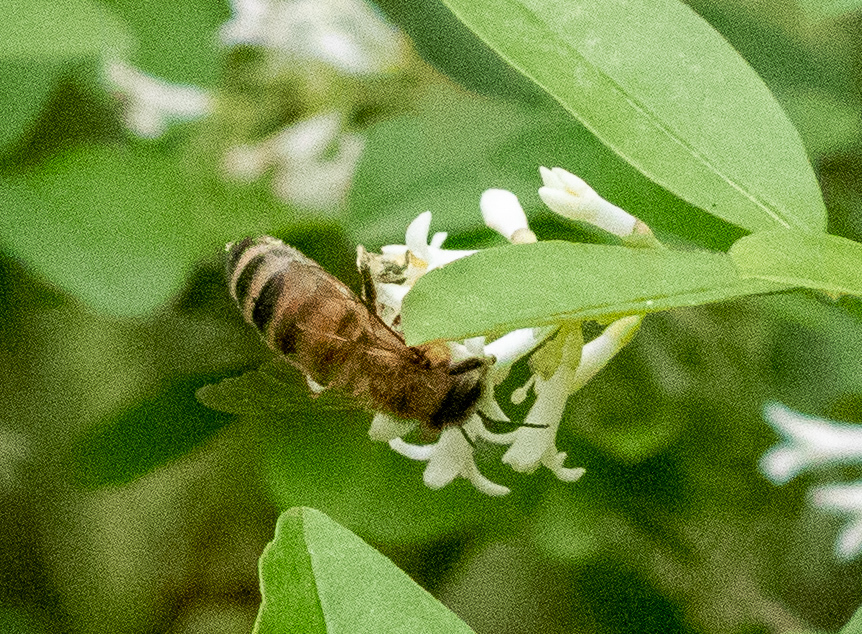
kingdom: Animalia
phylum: Arthropoda
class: Insecta
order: Hymenoptera
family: Apidae
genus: Apis
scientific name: Apis mellifera
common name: Honey bee
